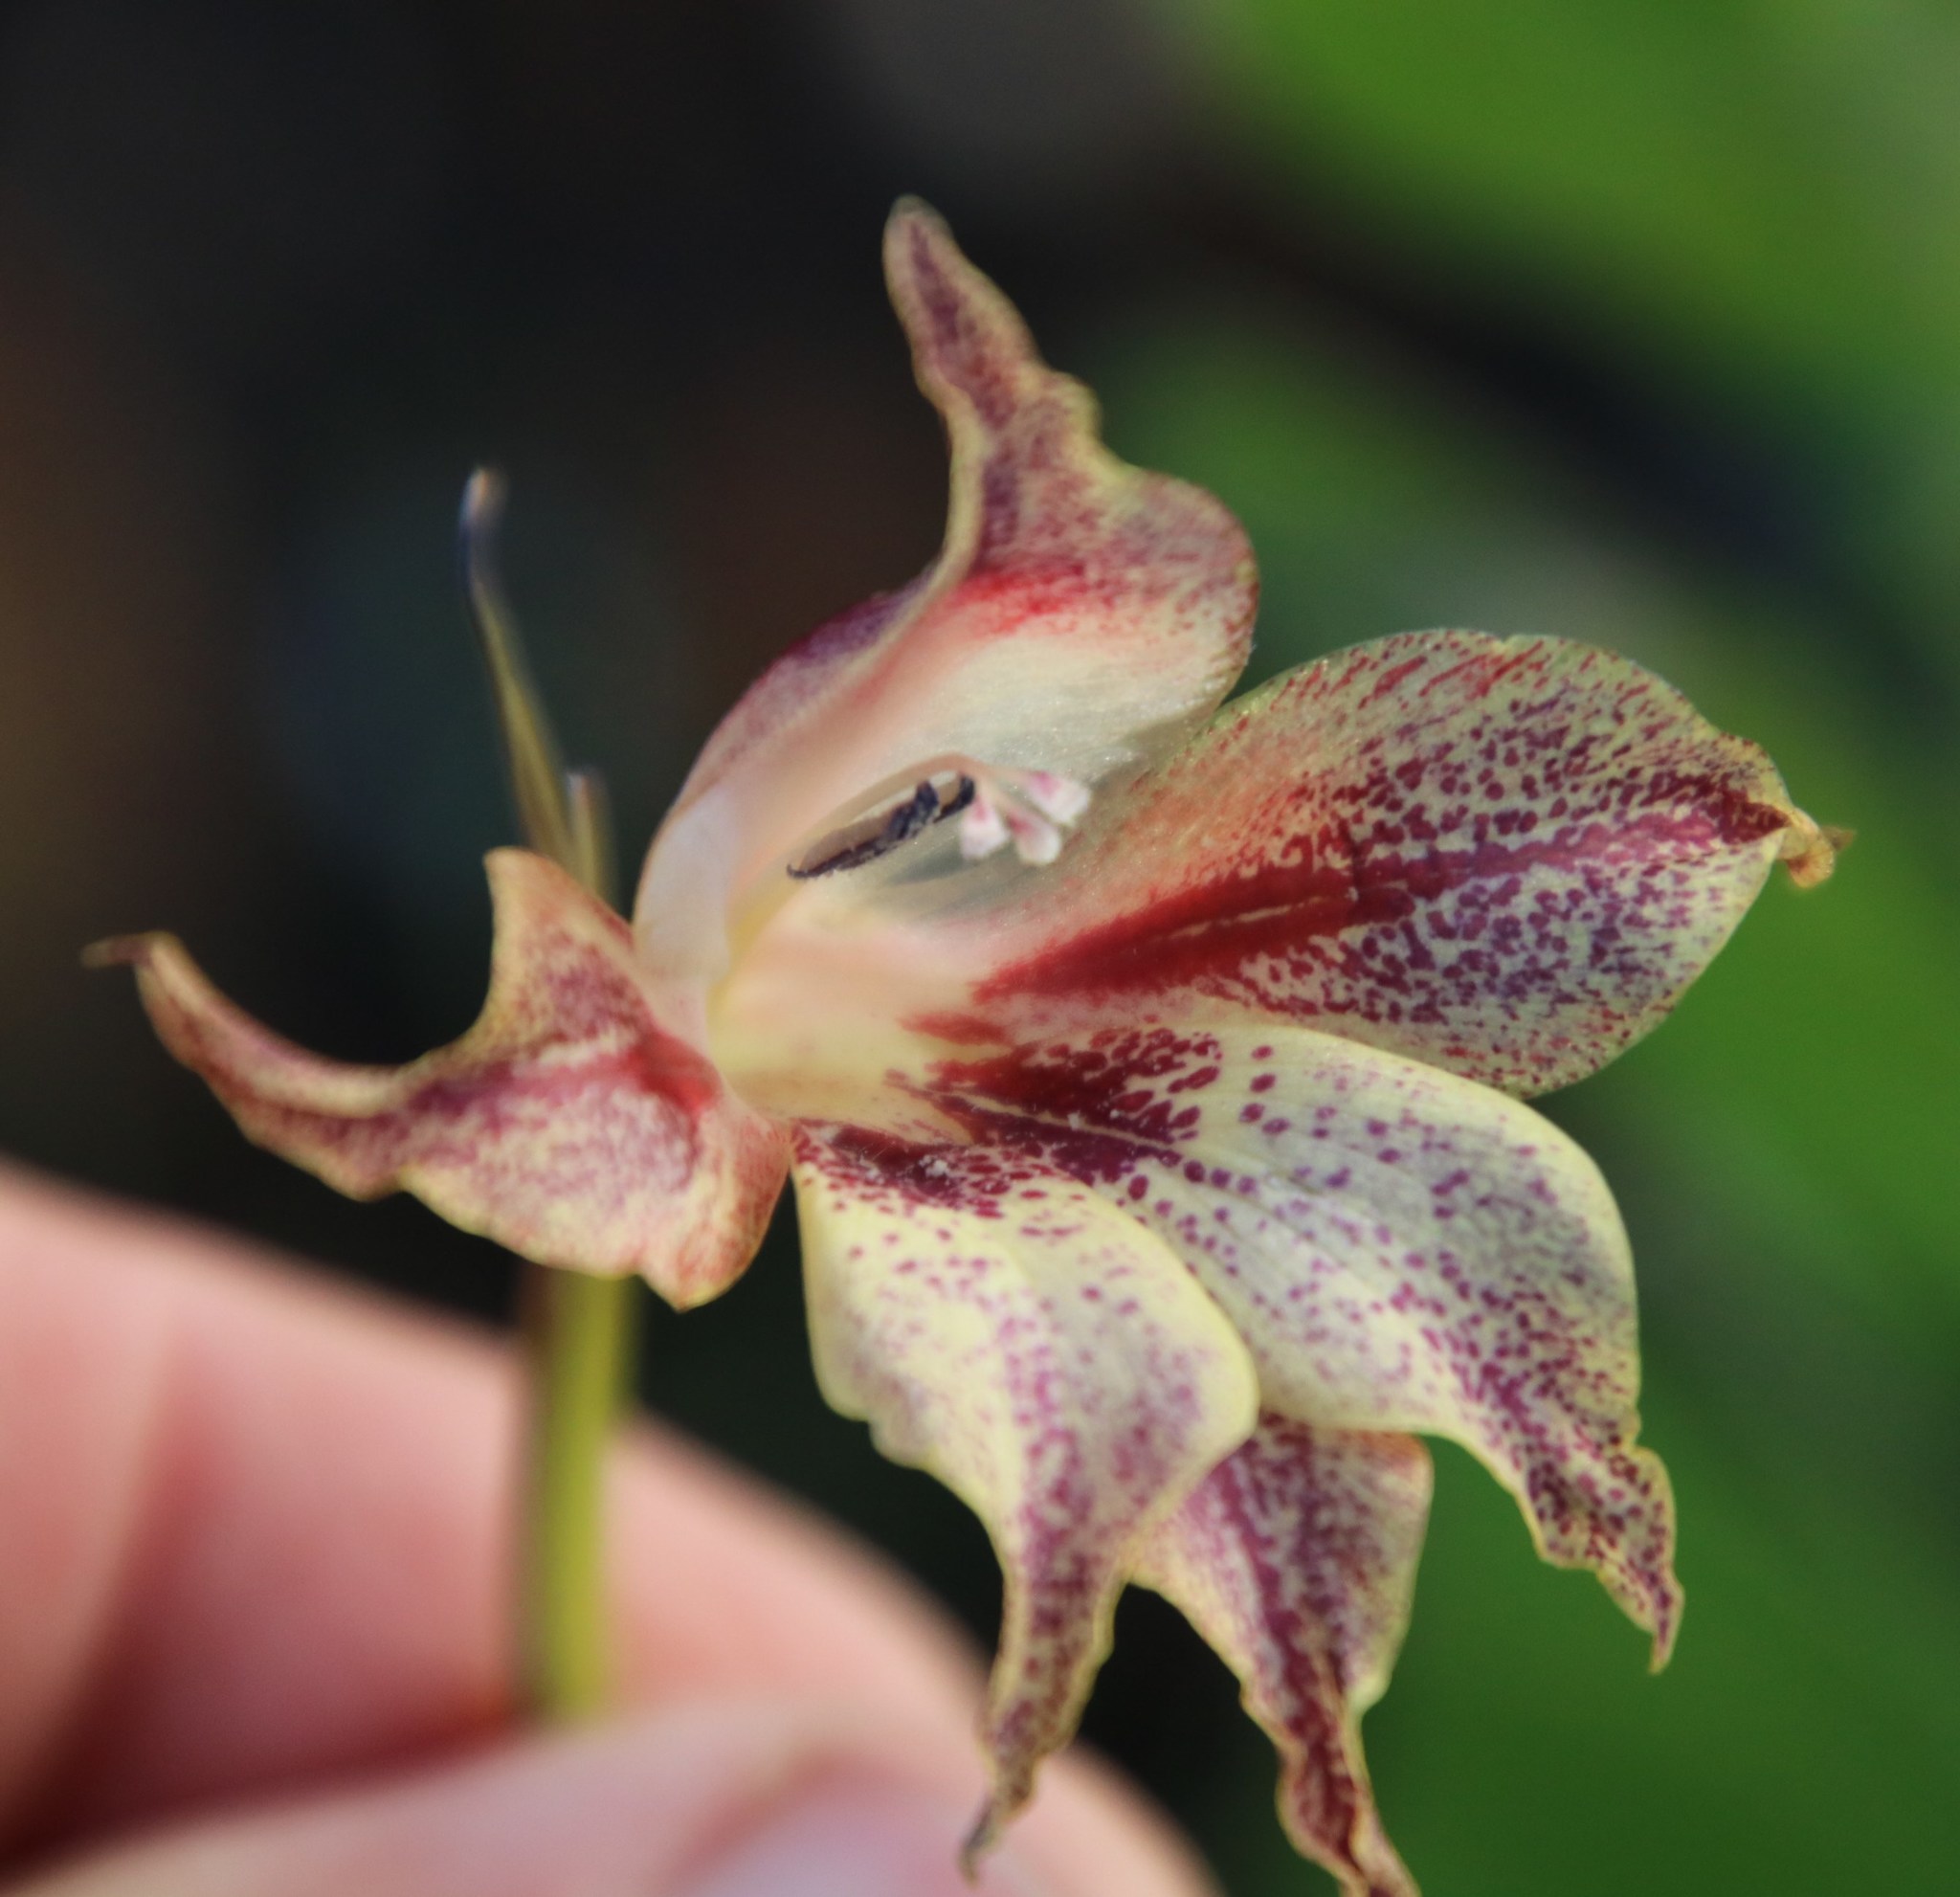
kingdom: Plantae
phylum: Tracheophyta
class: Liliopsida
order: Asparagales
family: Iridaceae
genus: Gladiolus
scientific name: Gladiolus maculatus
